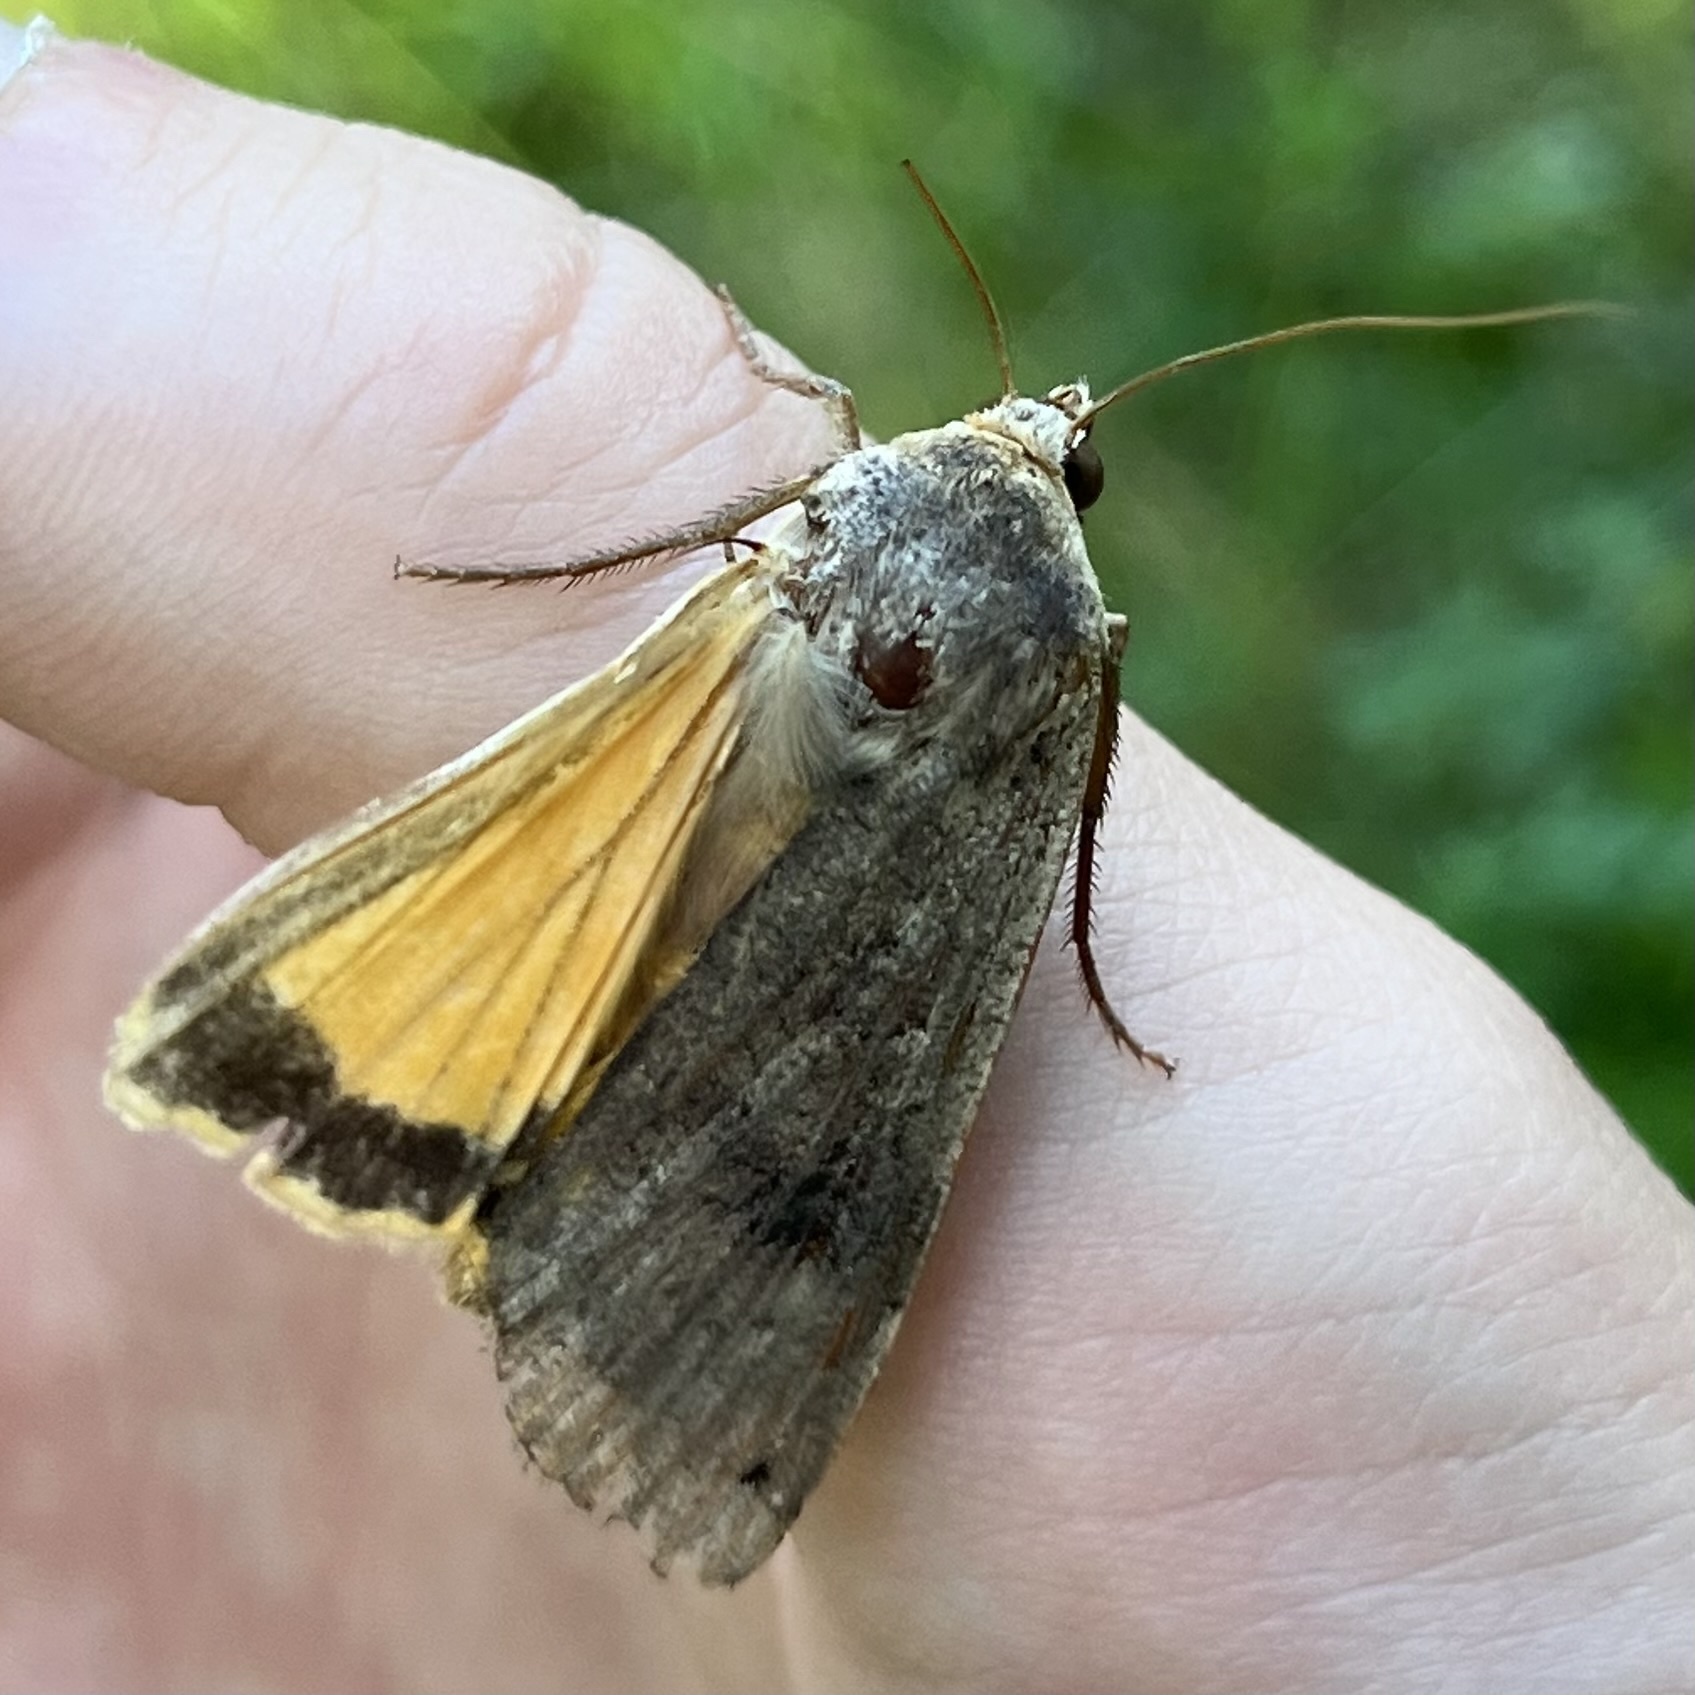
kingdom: Animalia
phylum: Arthropoda
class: Insecta
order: Lepidoptera
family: Noctuidae
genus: Noctua
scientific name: Noctua pronuba
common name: Large yellow underwing
